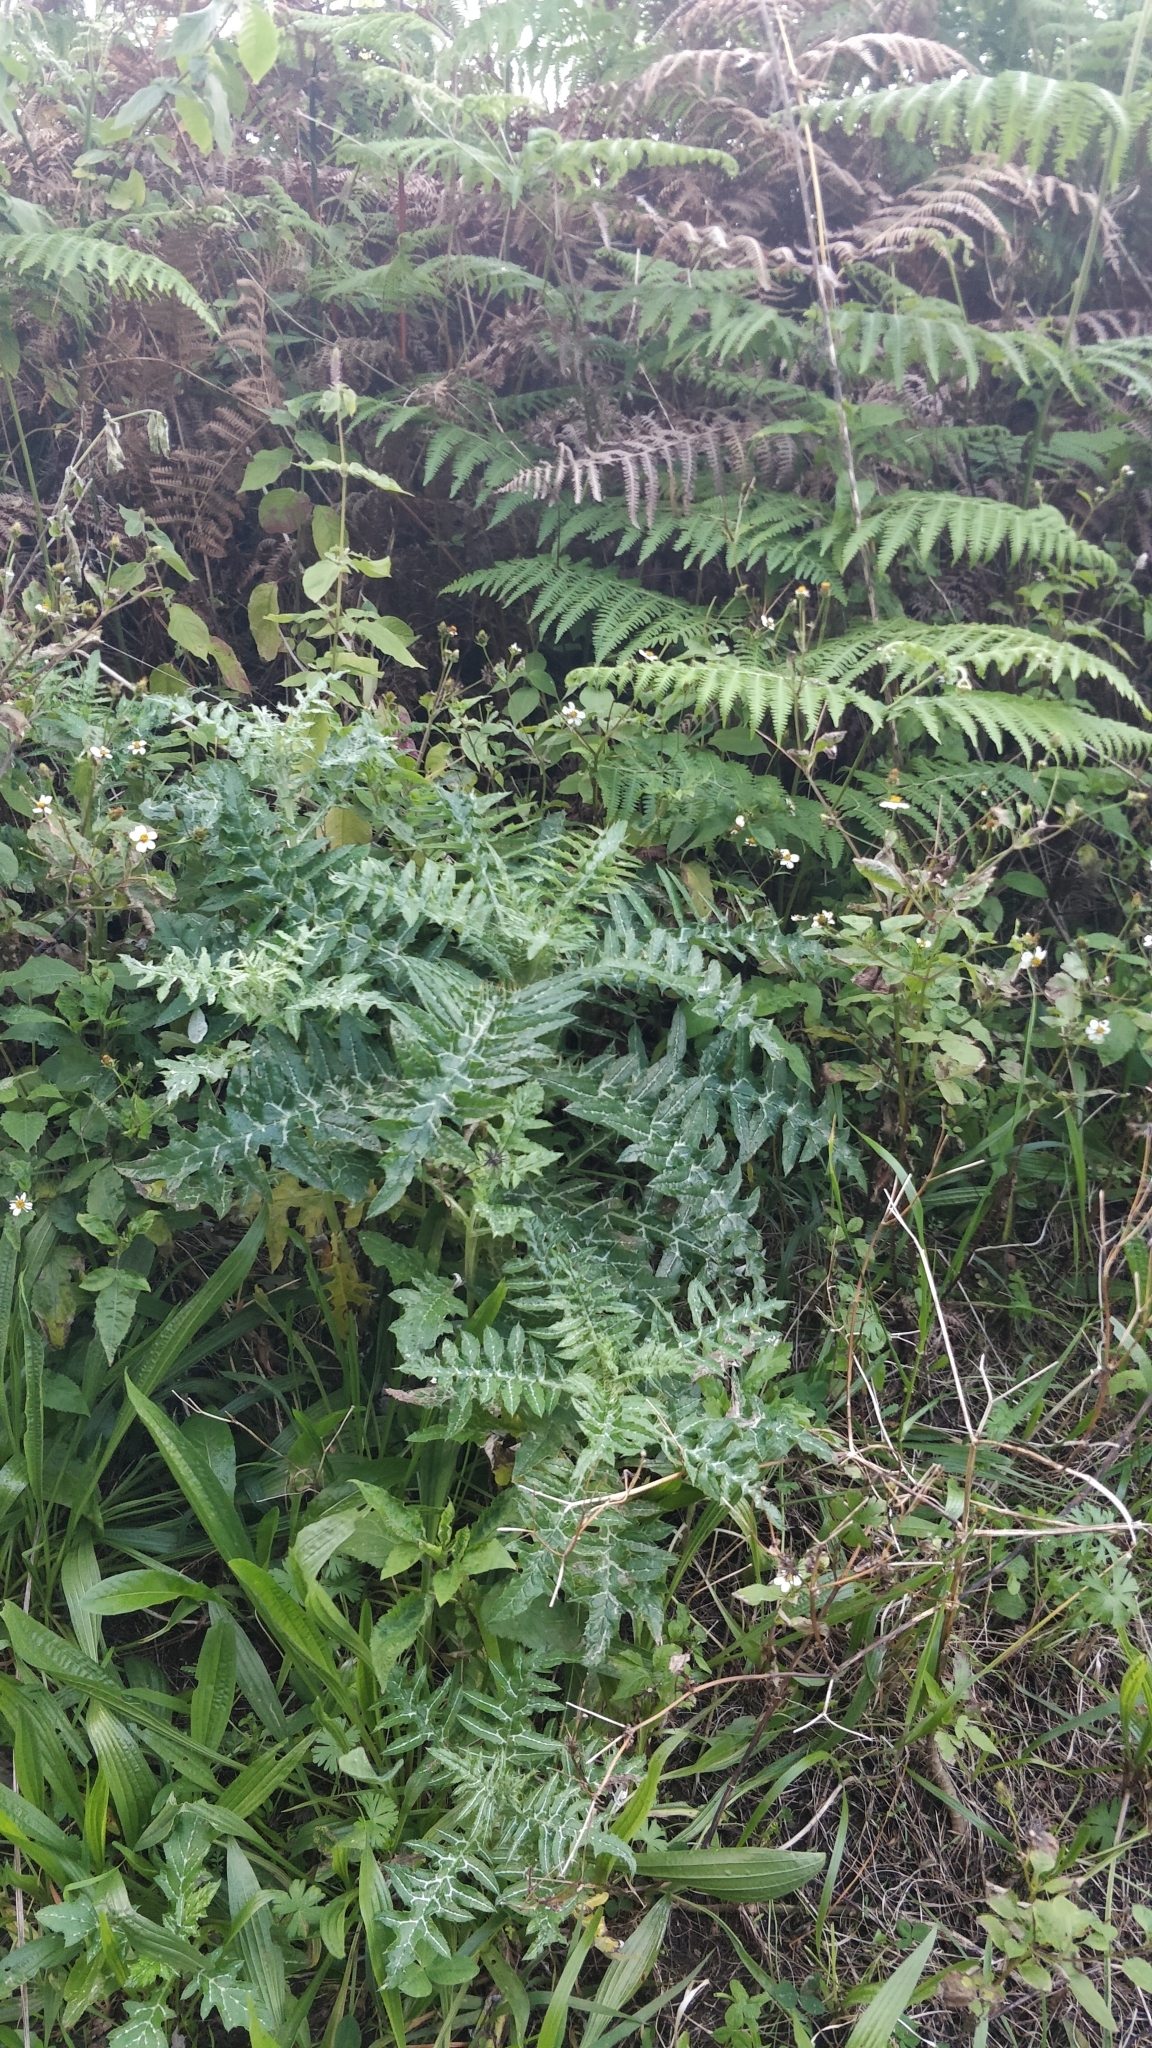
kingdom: Plantae
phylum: Tracheophyta
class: Magnoliopsida
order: Asterales
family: Asteraceae
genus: Galactites
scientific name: Galactites tomentosa
